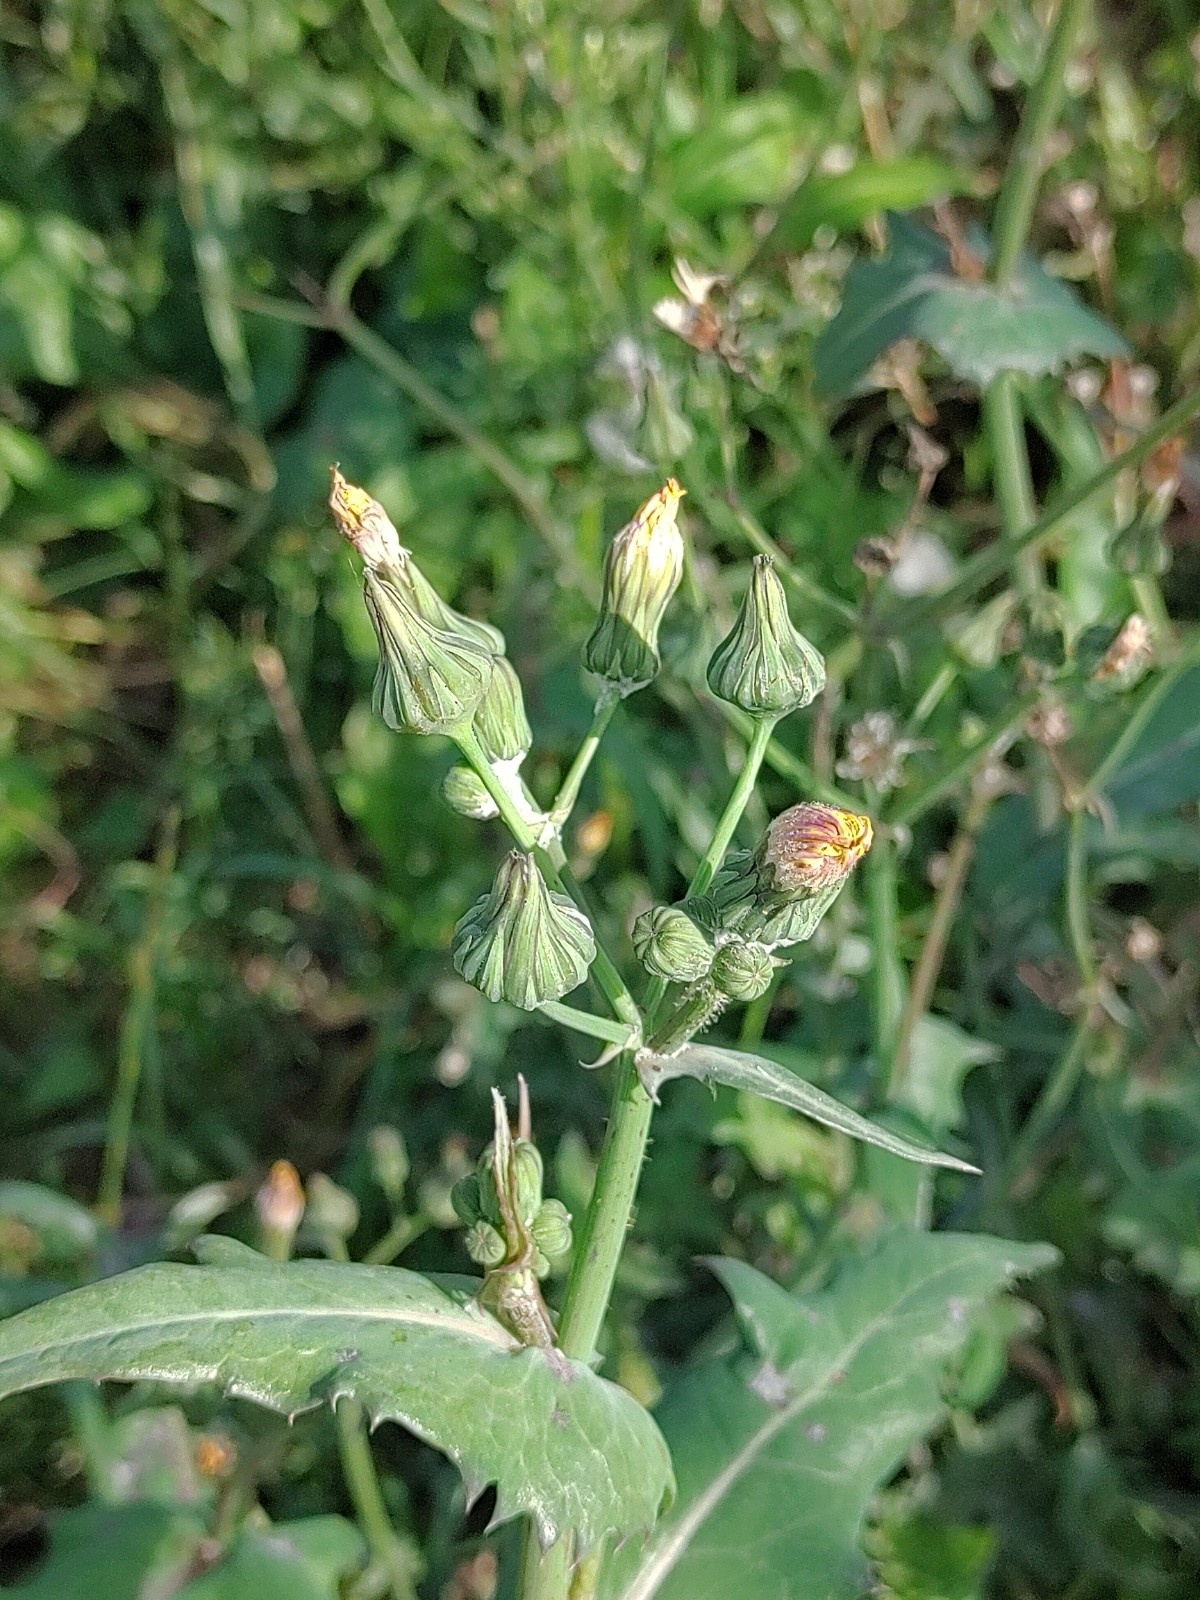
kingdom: Plantae
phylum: Tracheophyta
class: Magnoliopsida
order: Asterales
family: Asteraceae
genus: Sonchus
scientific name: Sonchus oleraceus
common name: Common sowthistle
